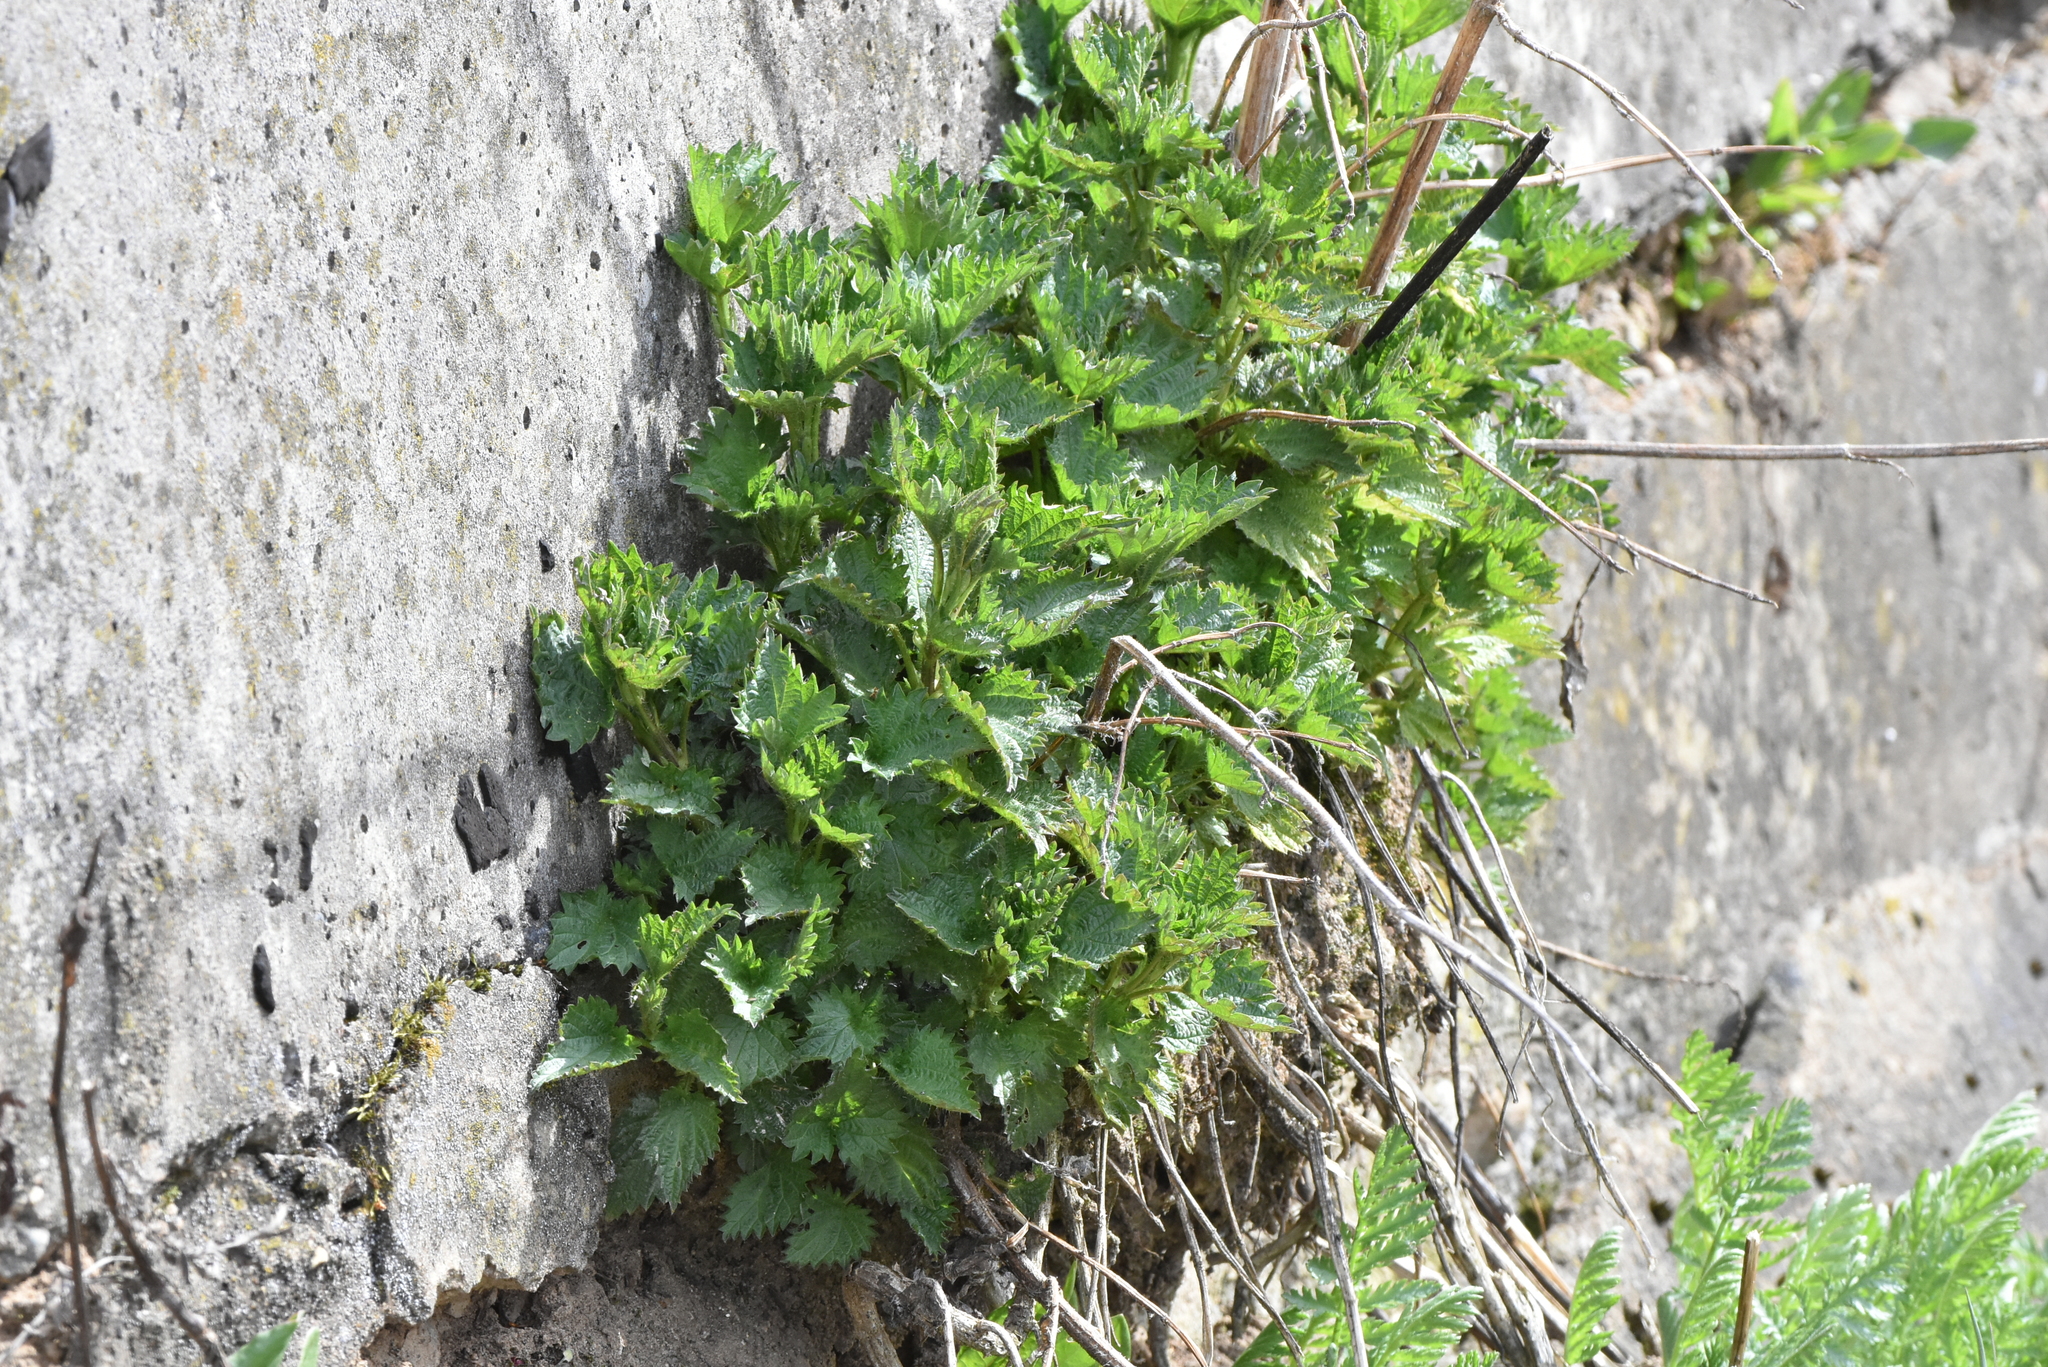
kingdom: Plantae
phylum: Tracheophyta
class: Magnoliopsida
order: Rosales
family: Urticaceae
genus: Urtica
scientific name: Urtica dioica
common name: Common nettle
